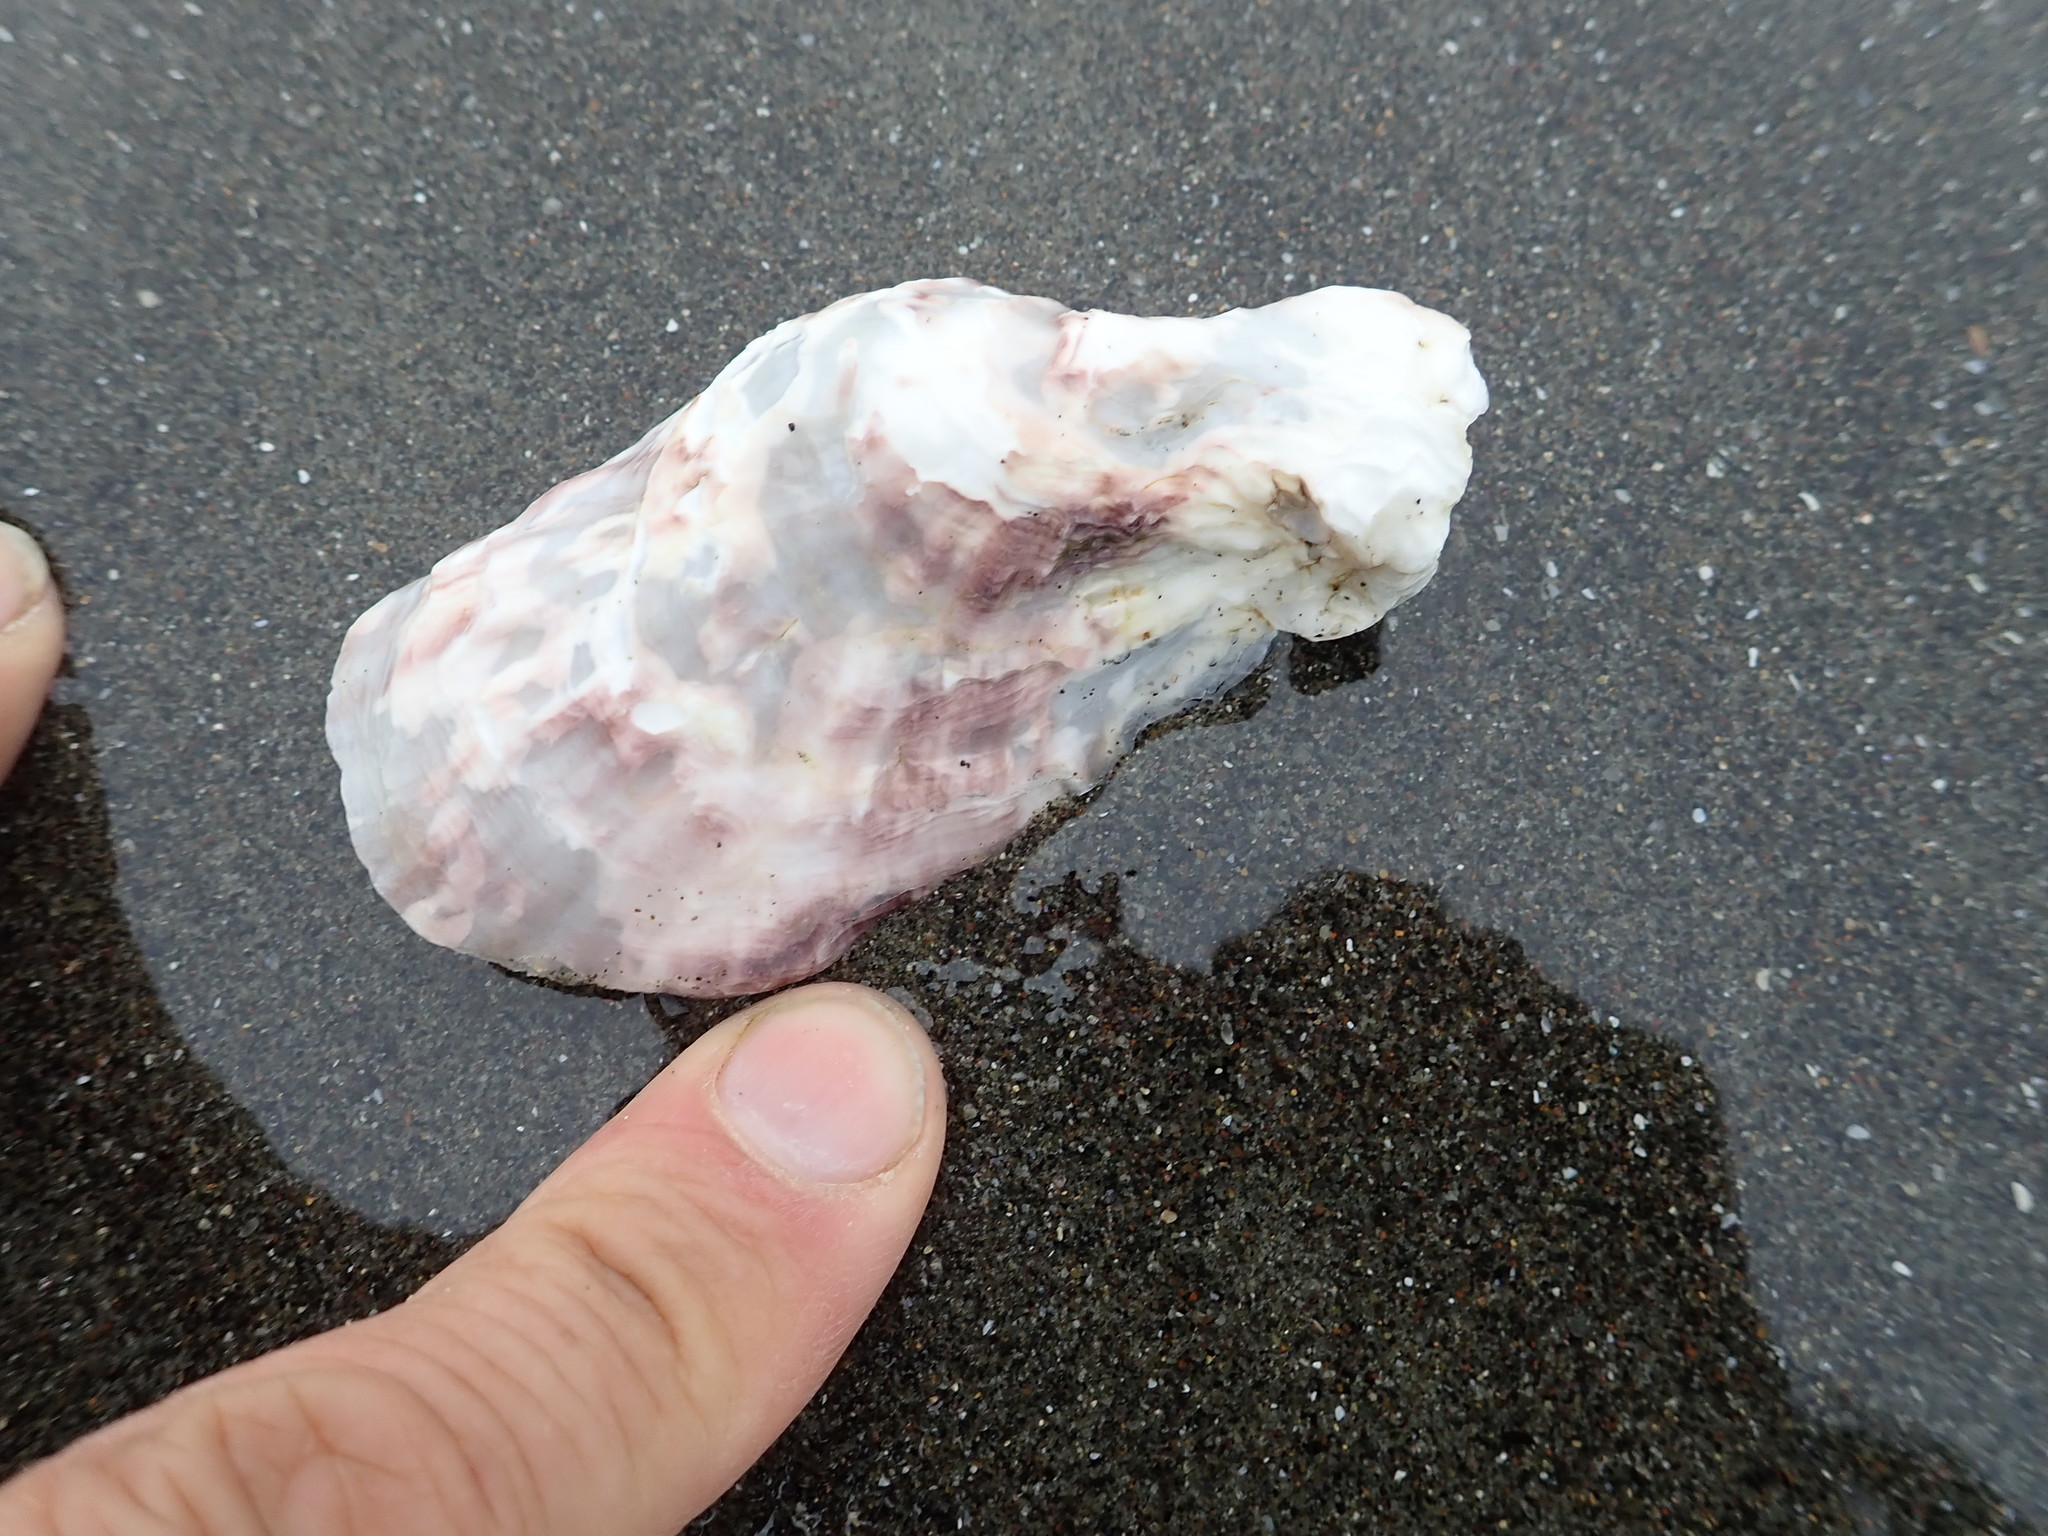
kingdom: Animalia
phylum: Mollusca
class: Bivalvia
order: Ostreida
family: Ostreidae
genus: Magallana
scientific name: Magallana gigas
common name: Pacific oyster
